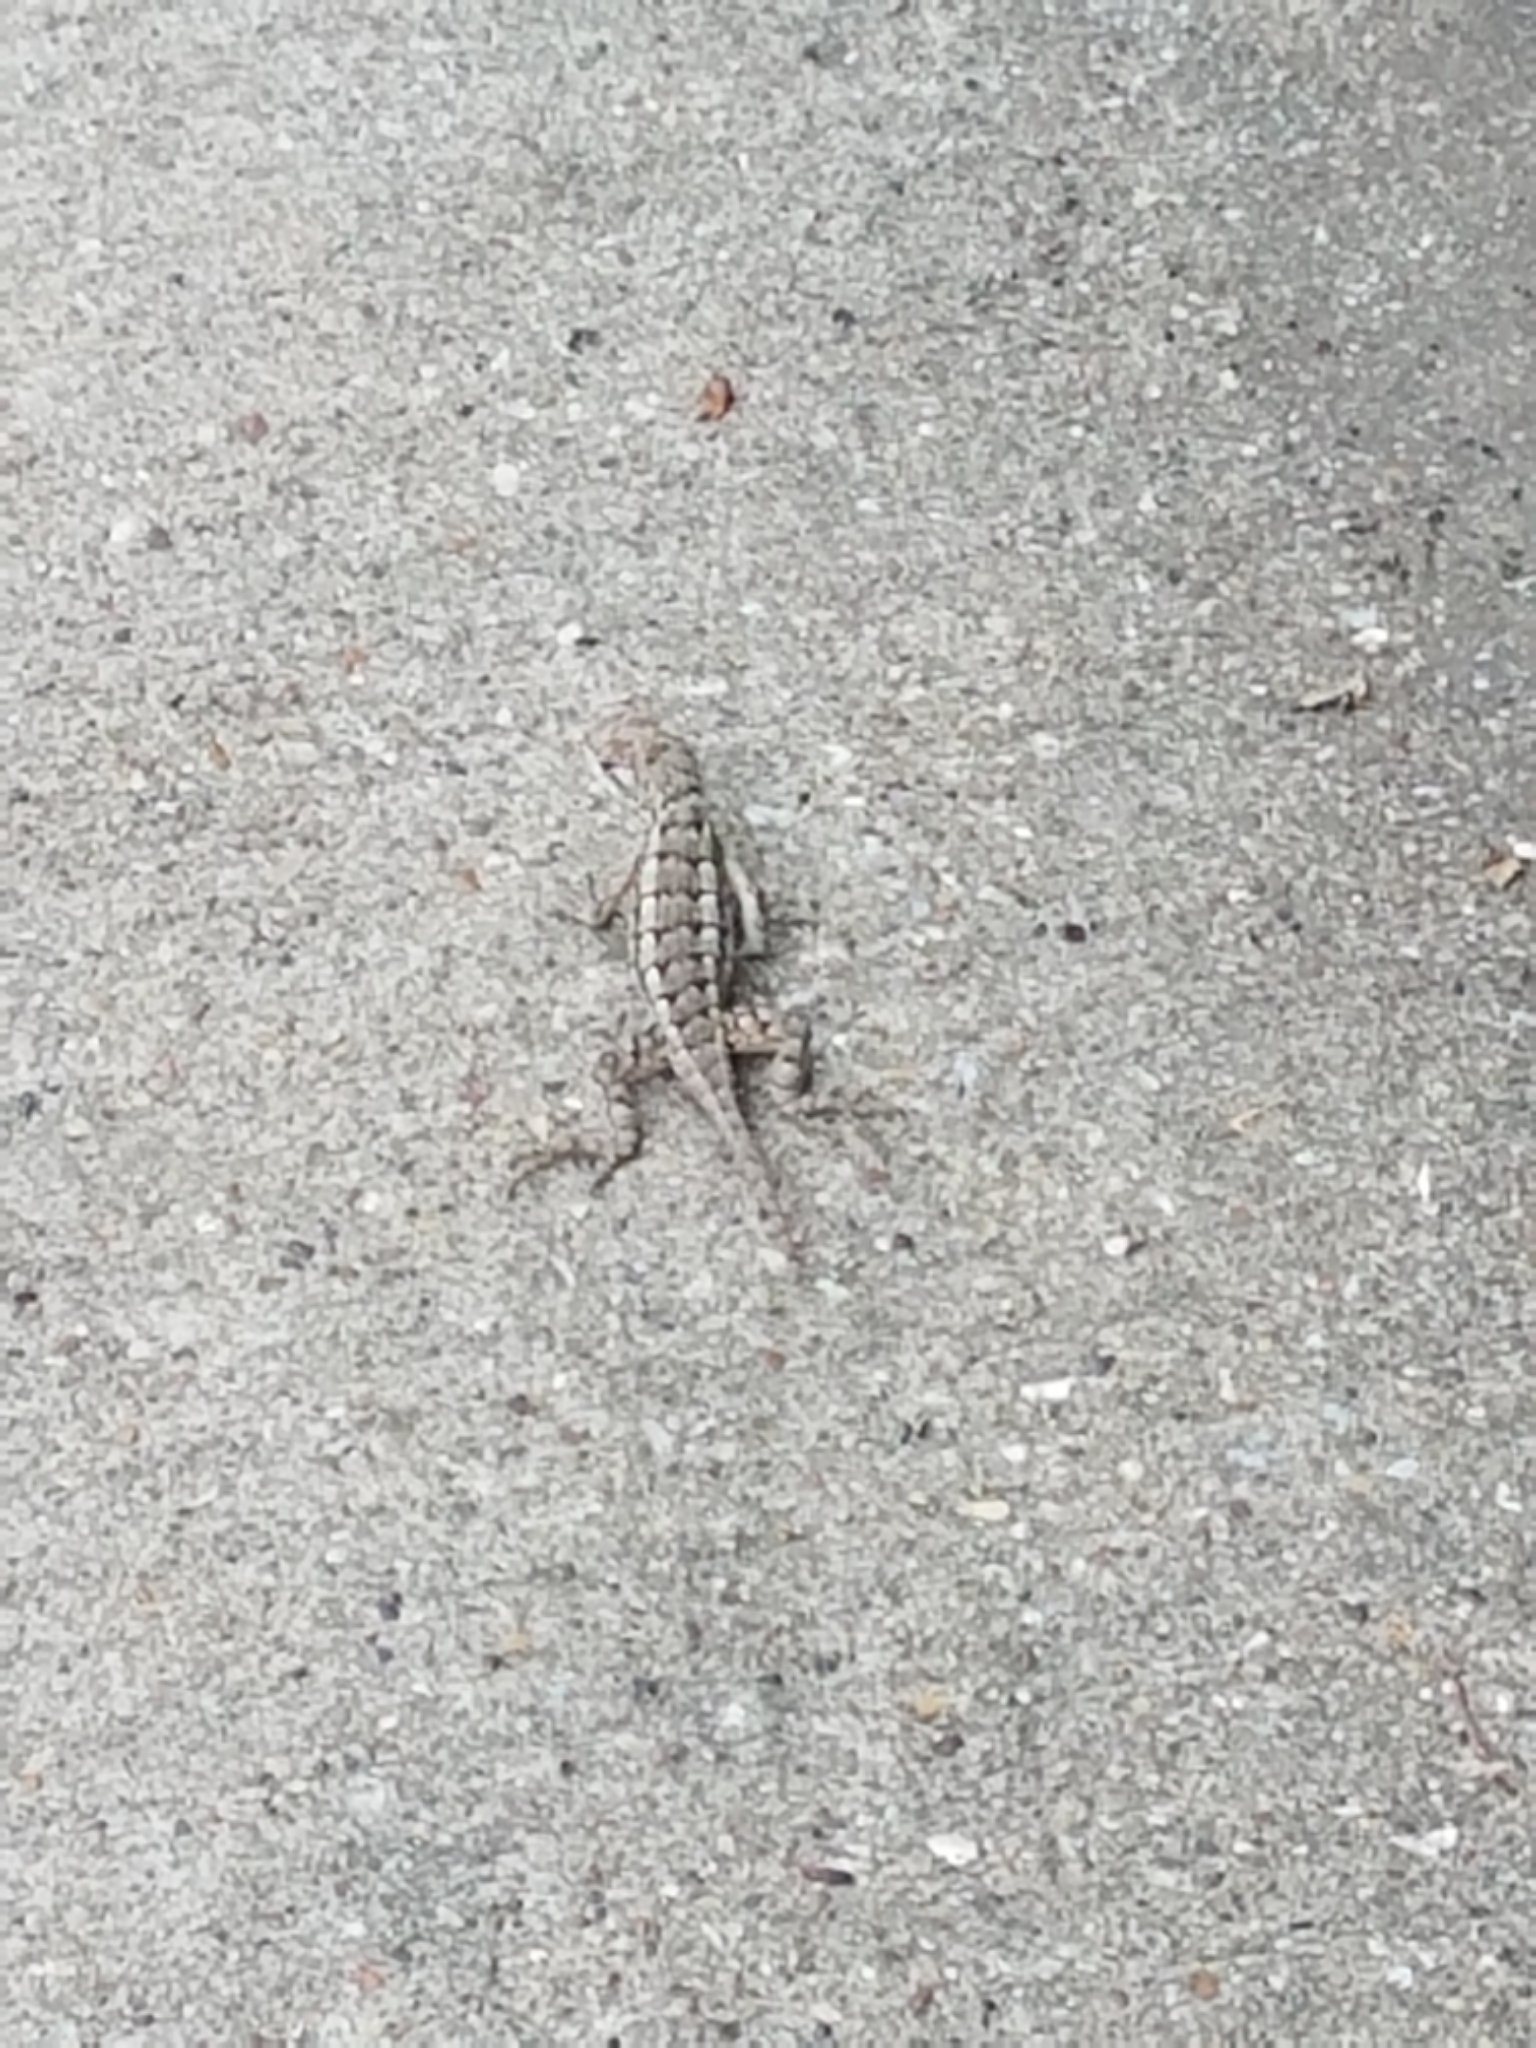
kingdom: Animalia
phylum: Chordata
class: Squamata
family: Phrynosomatidae
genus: Sceloporus
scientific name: Sceloporus olivaceus
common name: Texas spiny lizard
